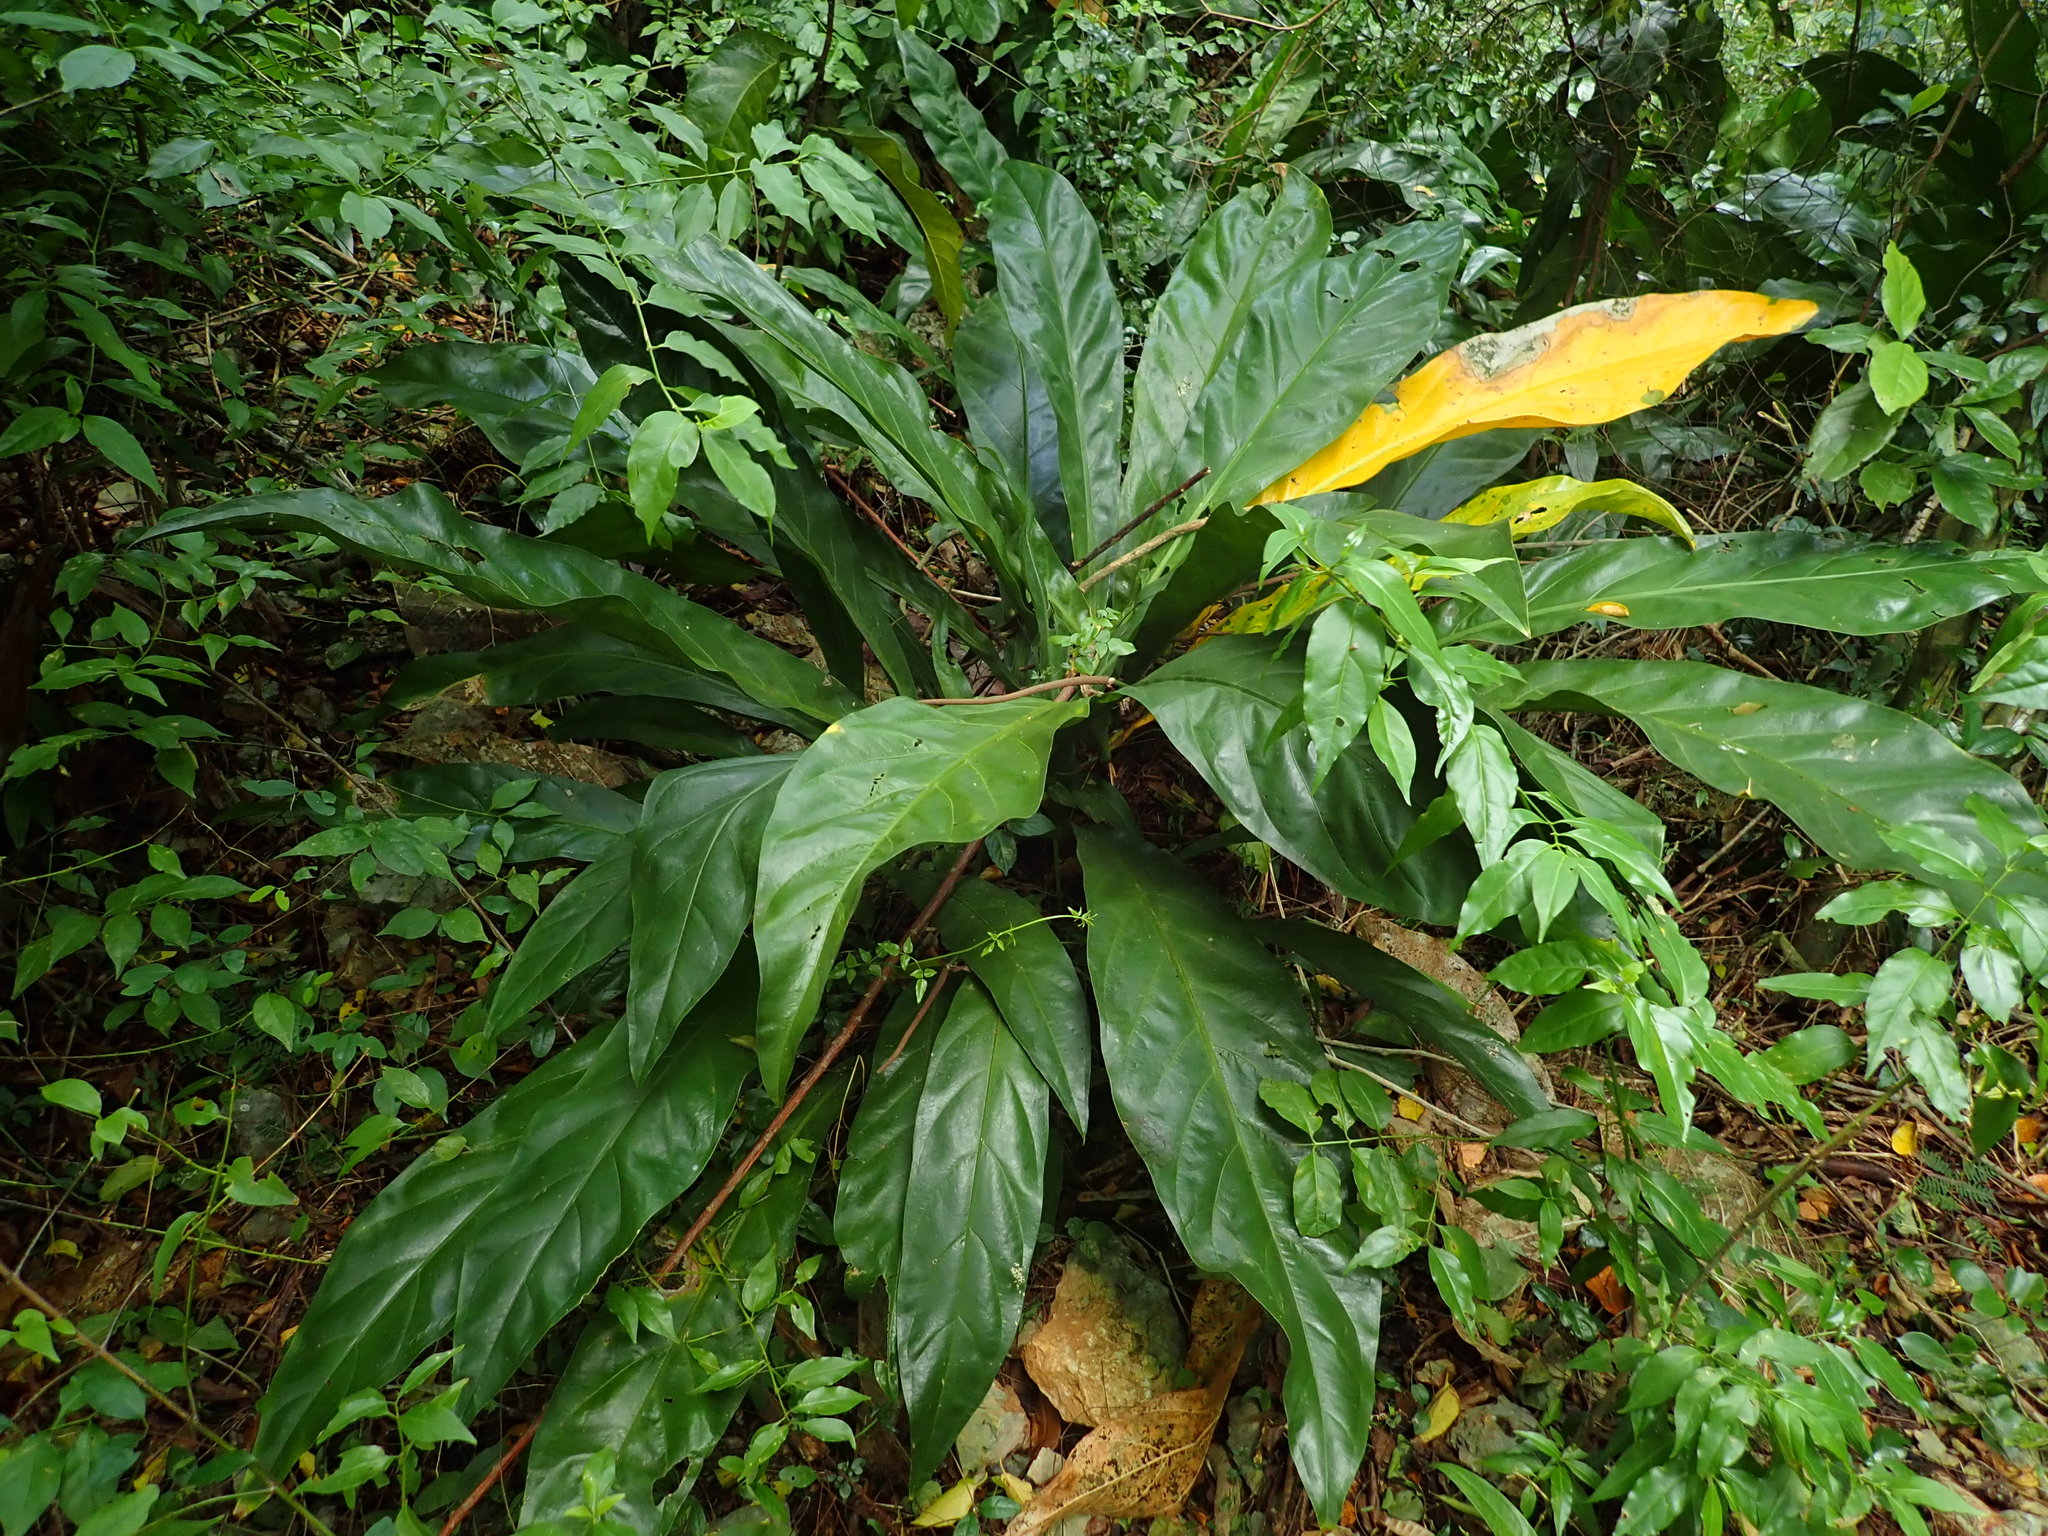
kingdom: Plantae
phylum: Tracheophyta
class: Liliopsida
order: Alismatales
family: Araceae
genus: Anthurium
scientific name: Anthurium crenatum
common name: Scalloped laceleaf
